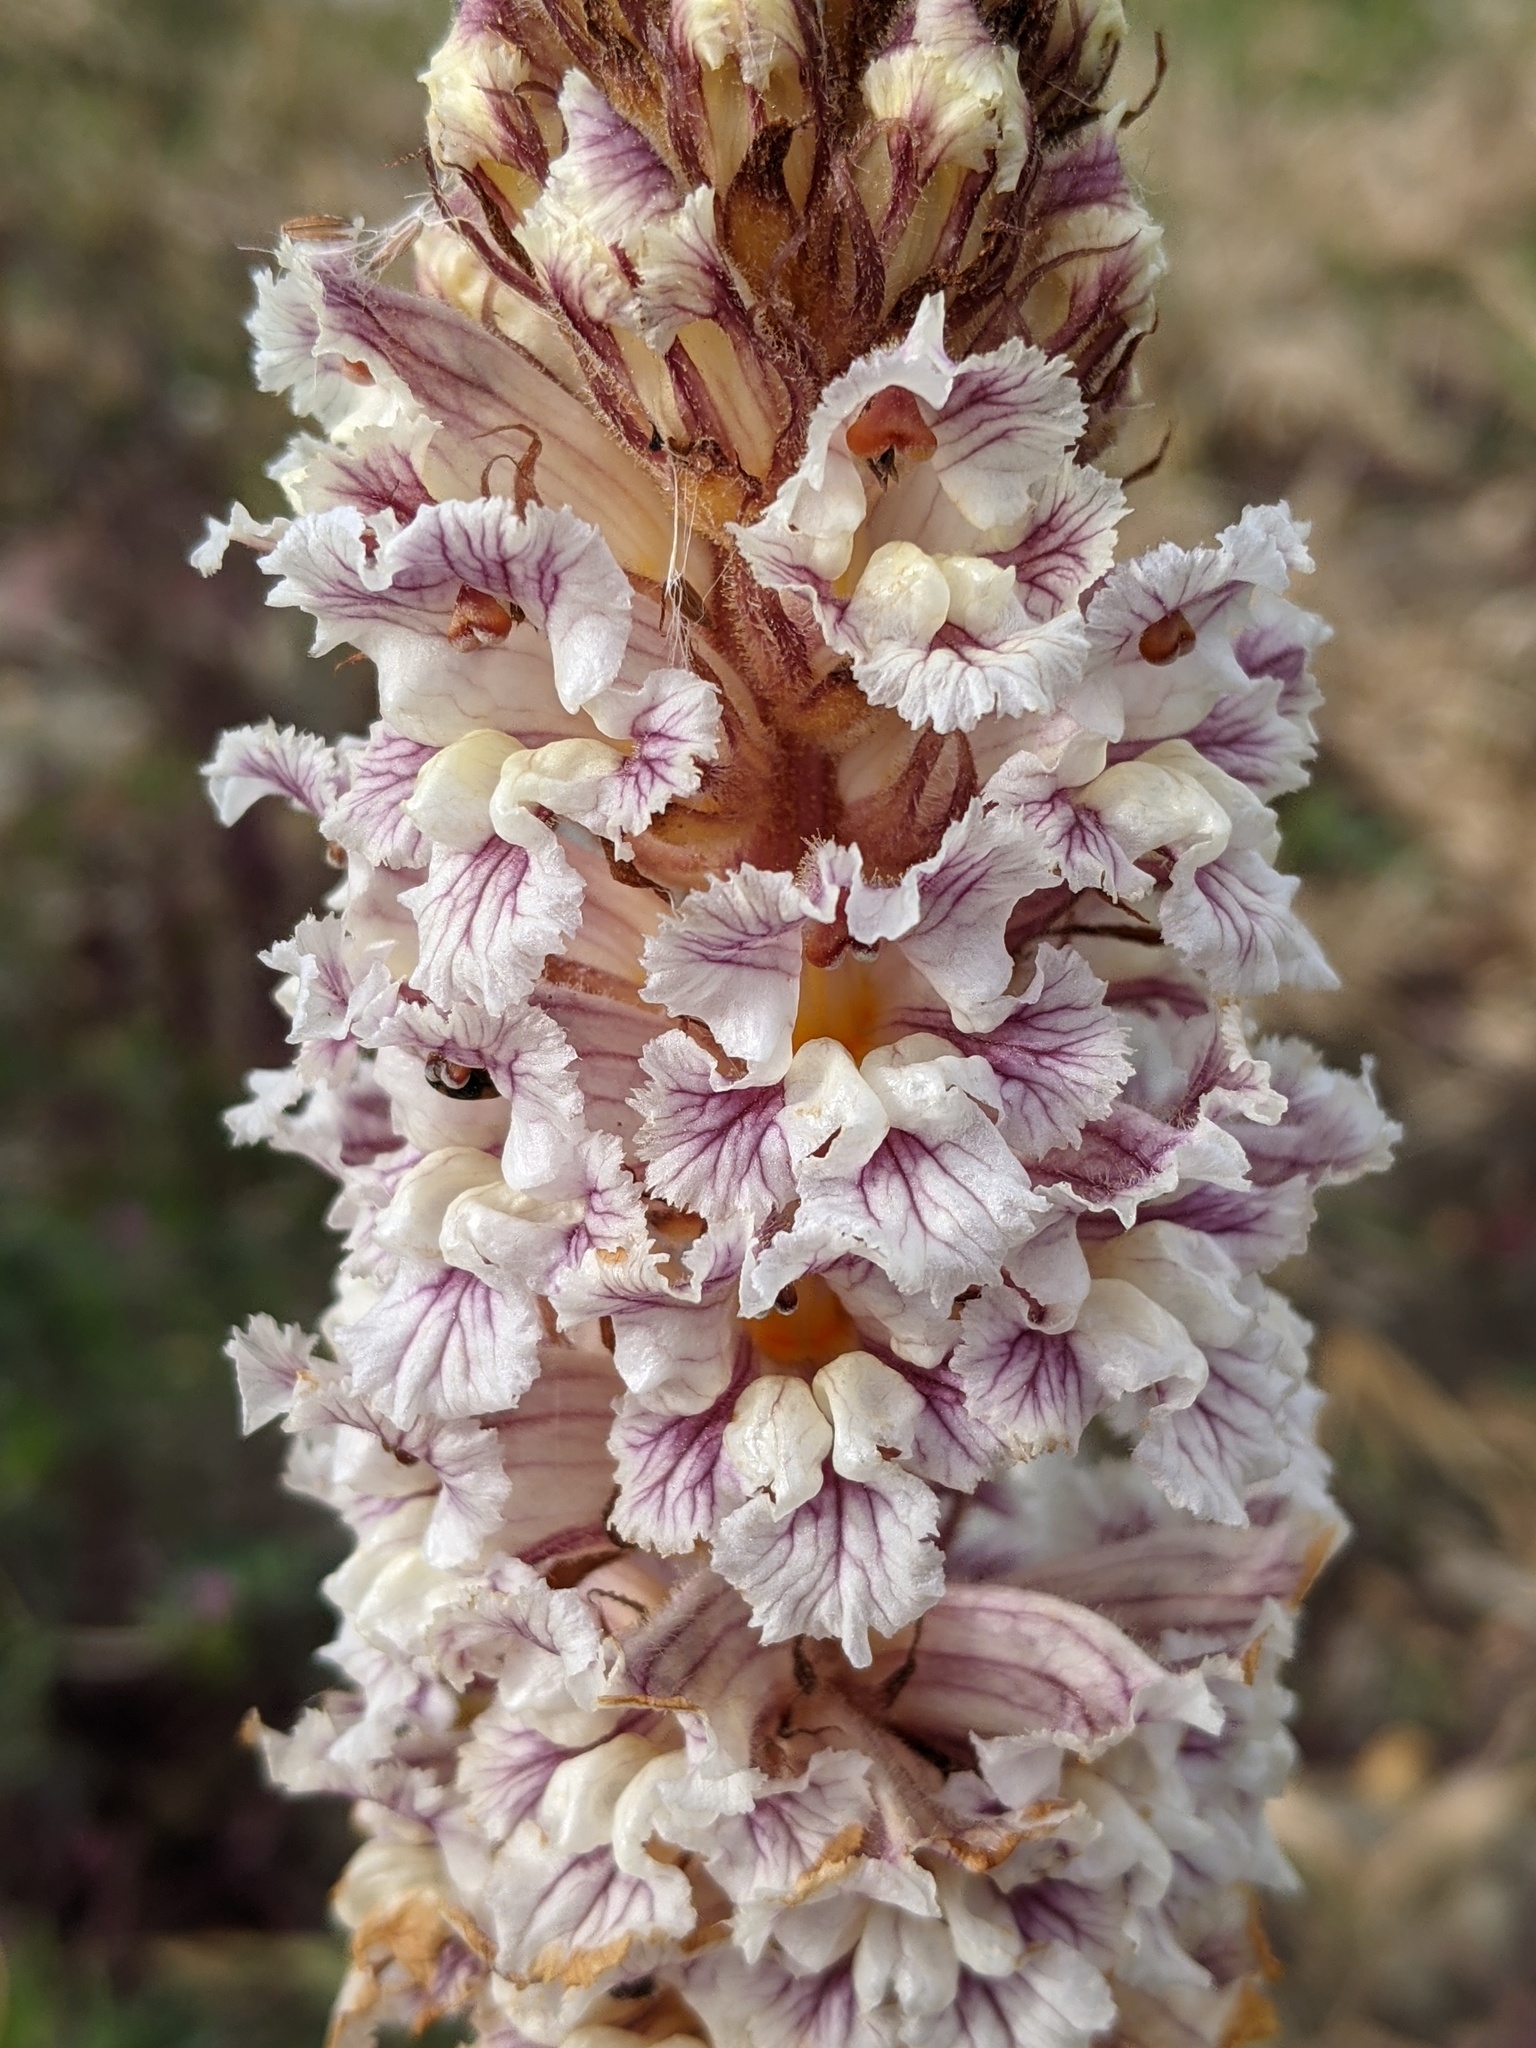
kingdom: Plantae
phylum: Tracheophyta
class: Magnoliopsida
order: Lamiales
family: Orobanchaceae
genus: Orobanche
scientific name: Orobanche crenata
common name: Bean broomrape
